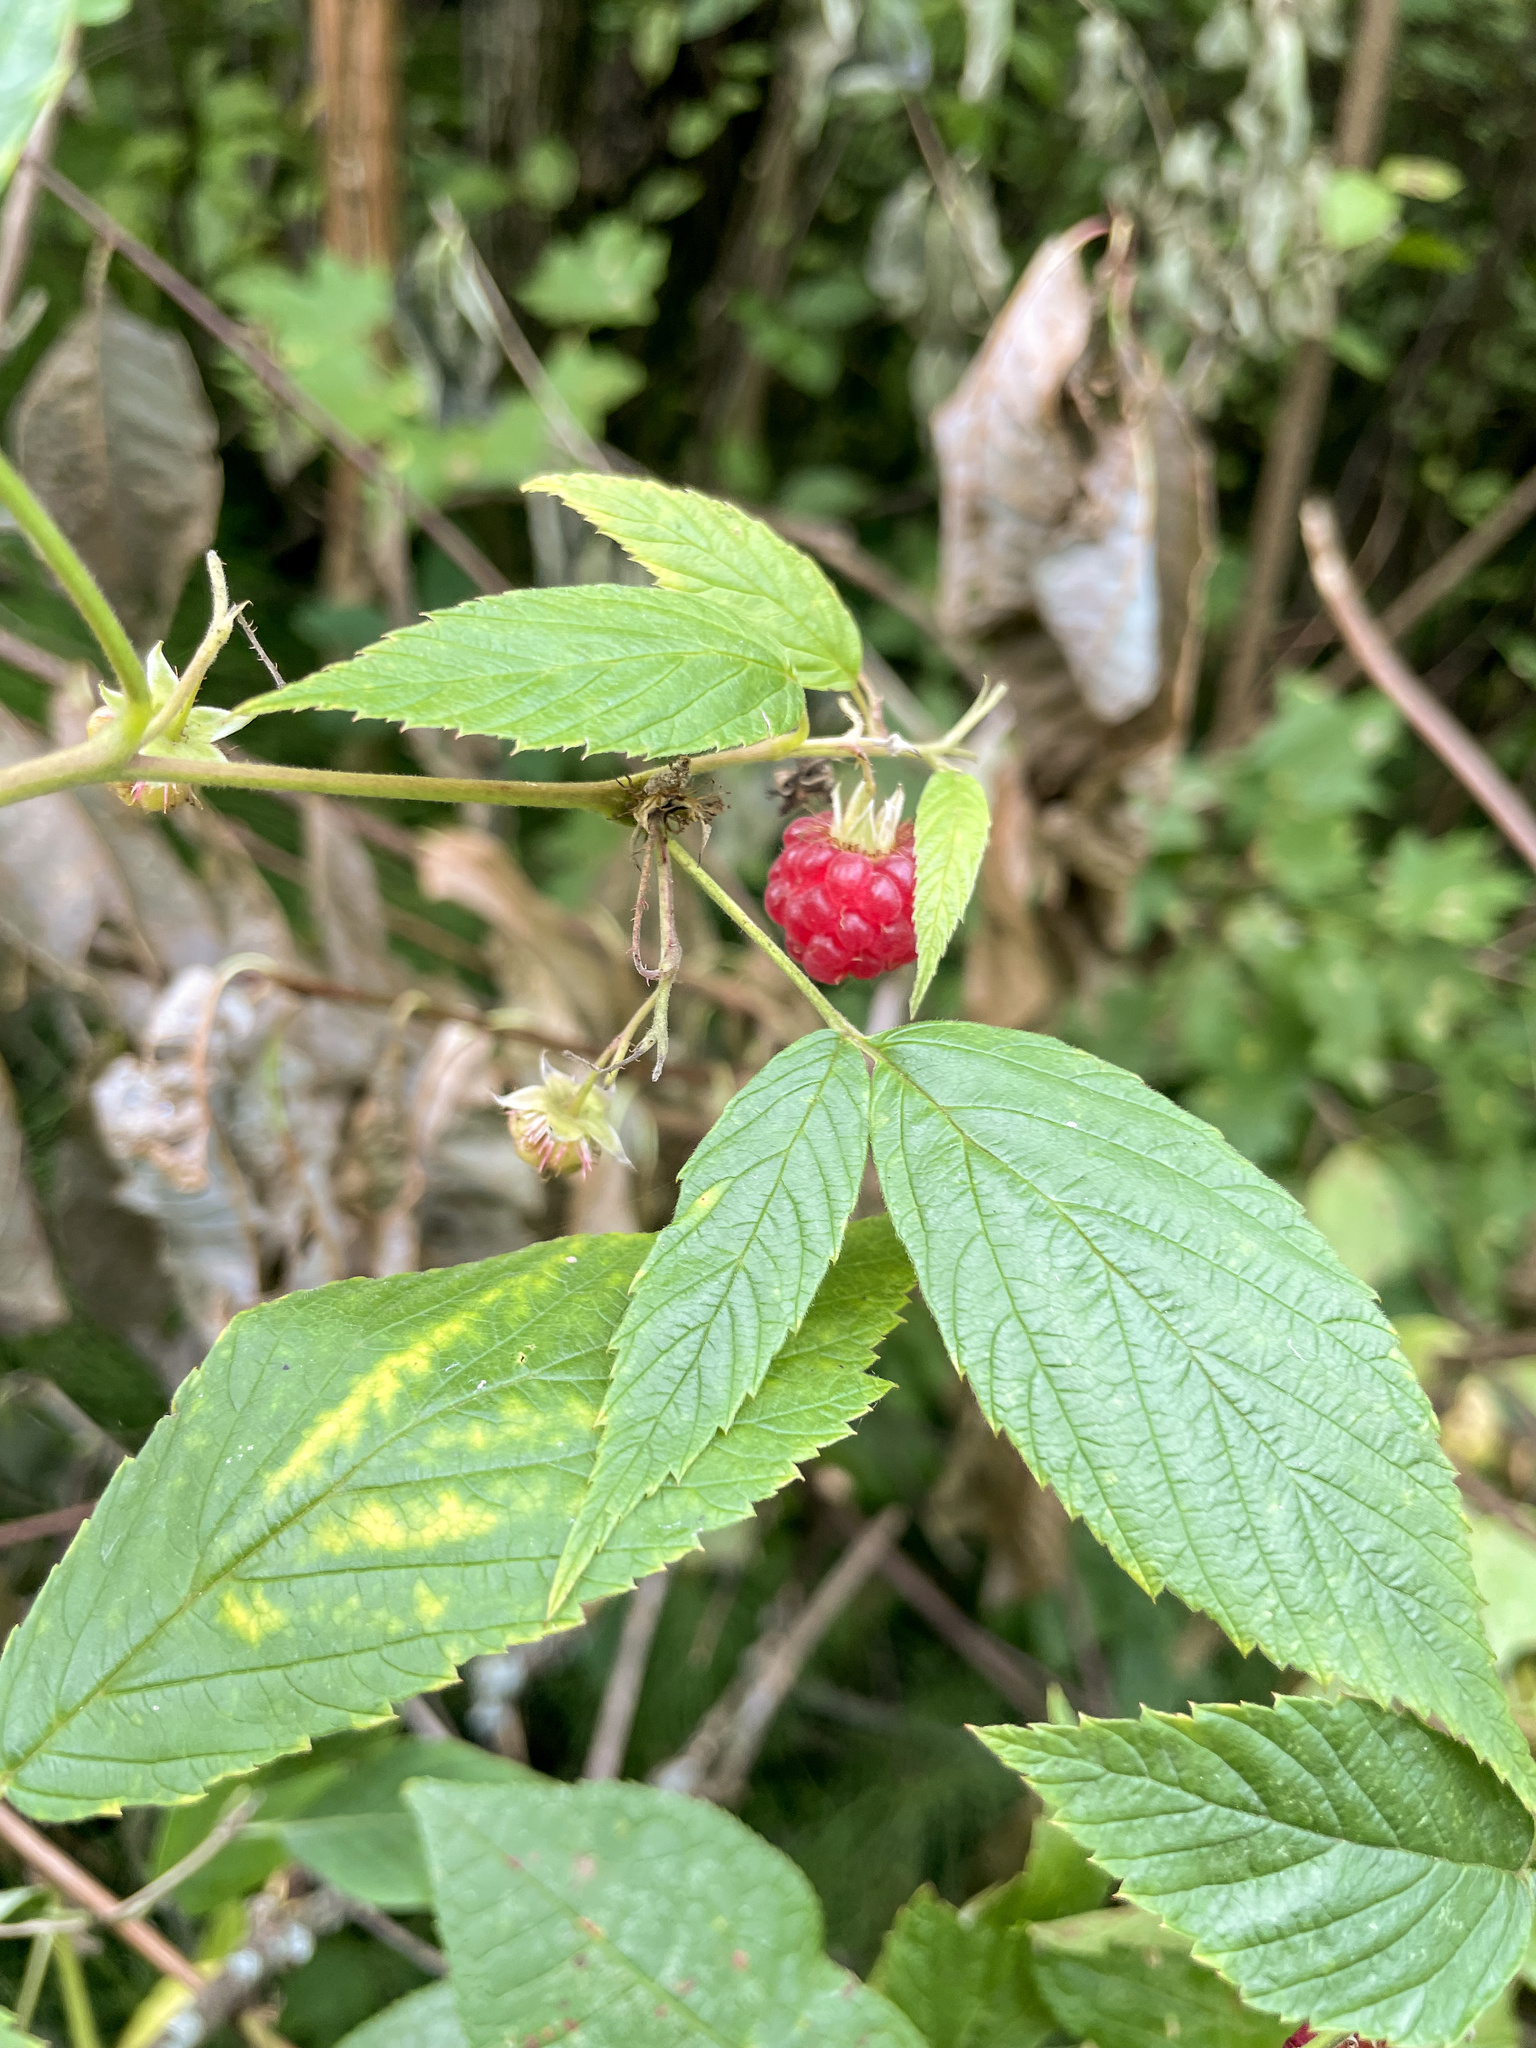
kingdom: Plantae
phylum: Tracheophyta
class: Magnoliopsida
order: Rosales
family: Rosaceae
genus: Rubus
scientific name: Rubus idaeus
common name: Raspberry
